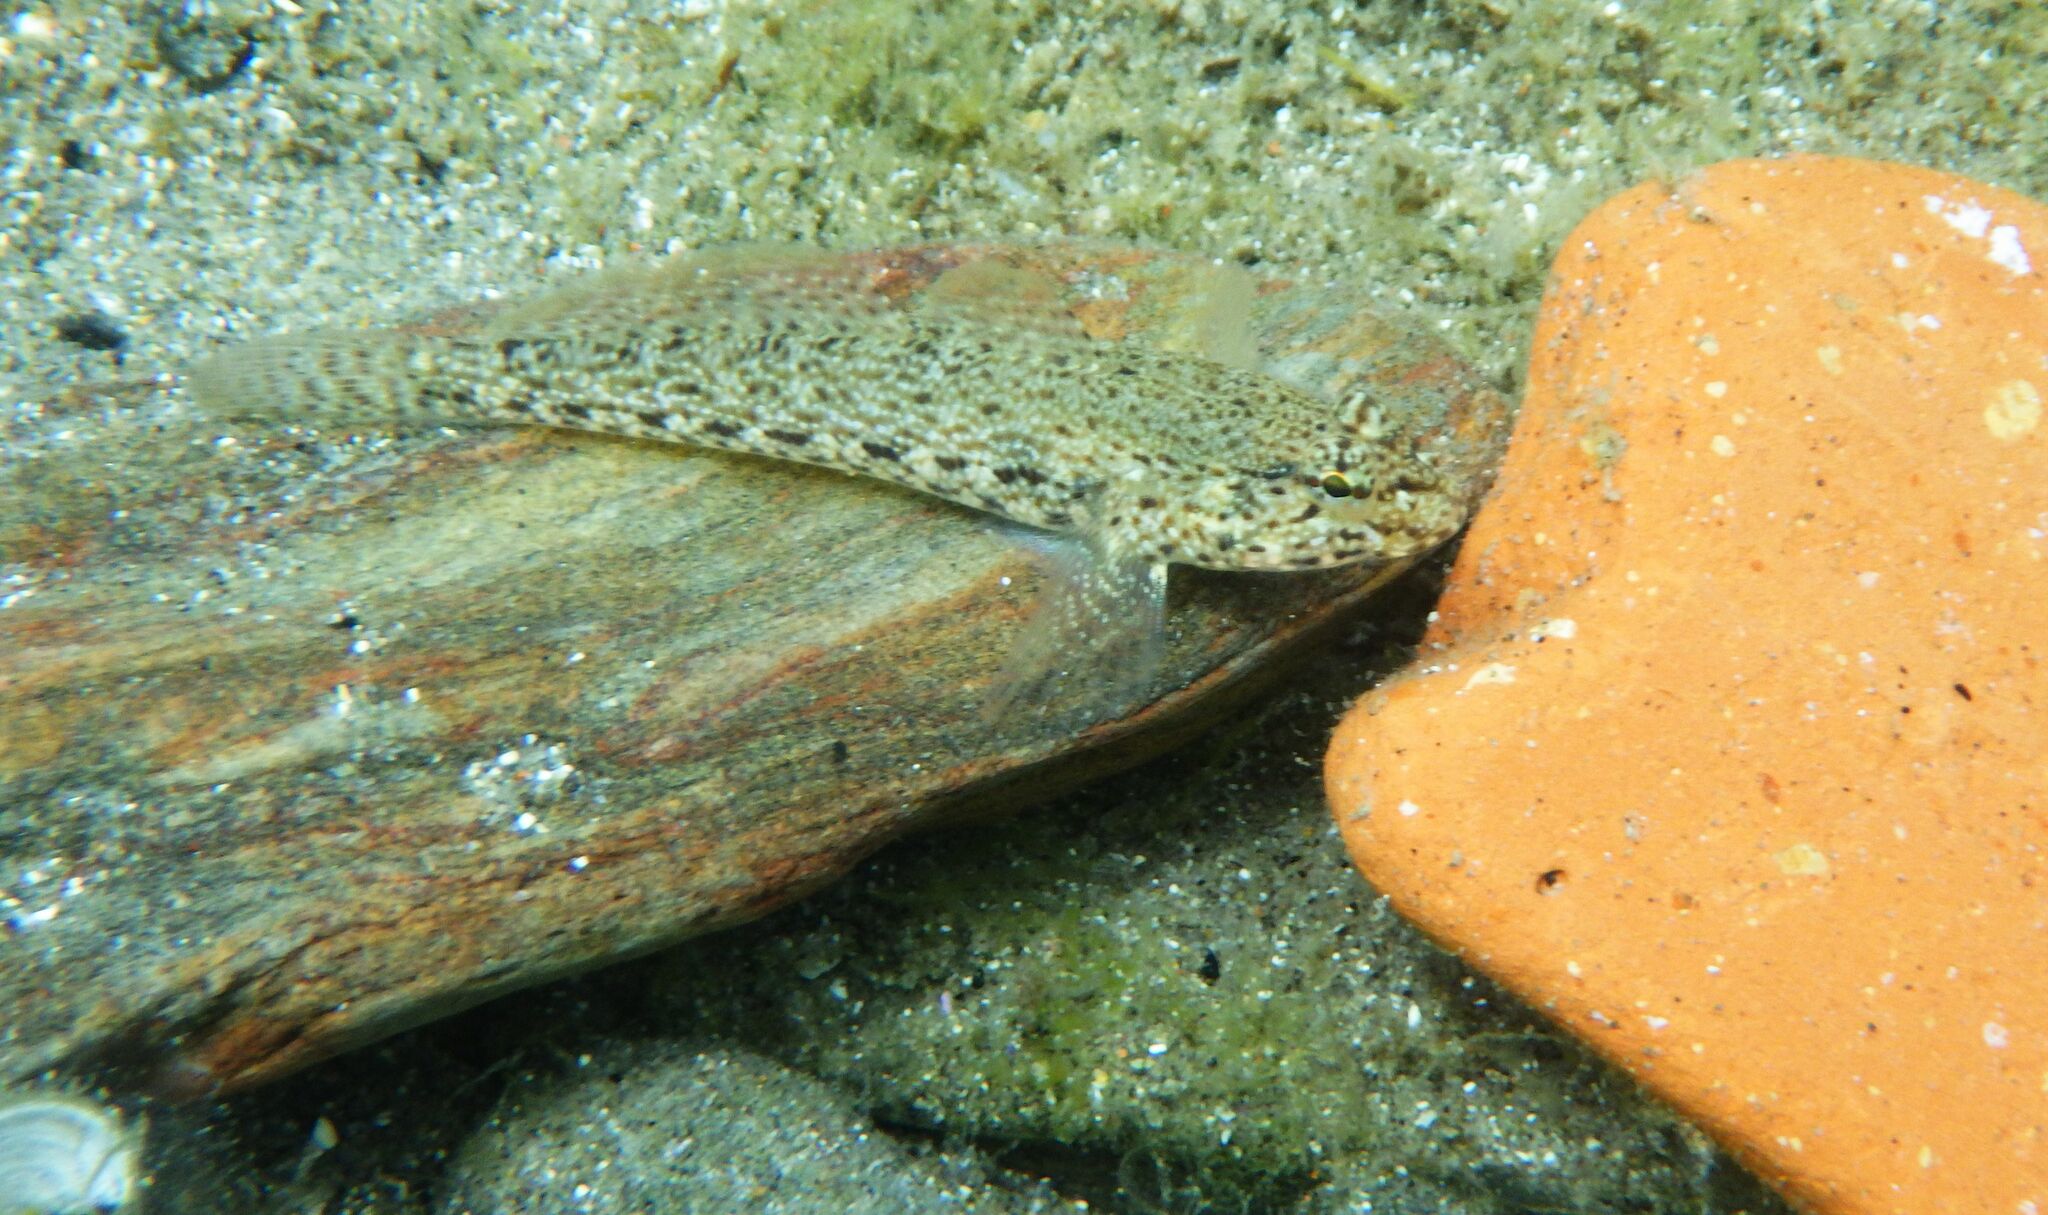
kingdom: Animalia
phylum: Chordata
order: Perciformes
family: Gobiidae
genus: Gobius
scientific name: Gobius incognitus
